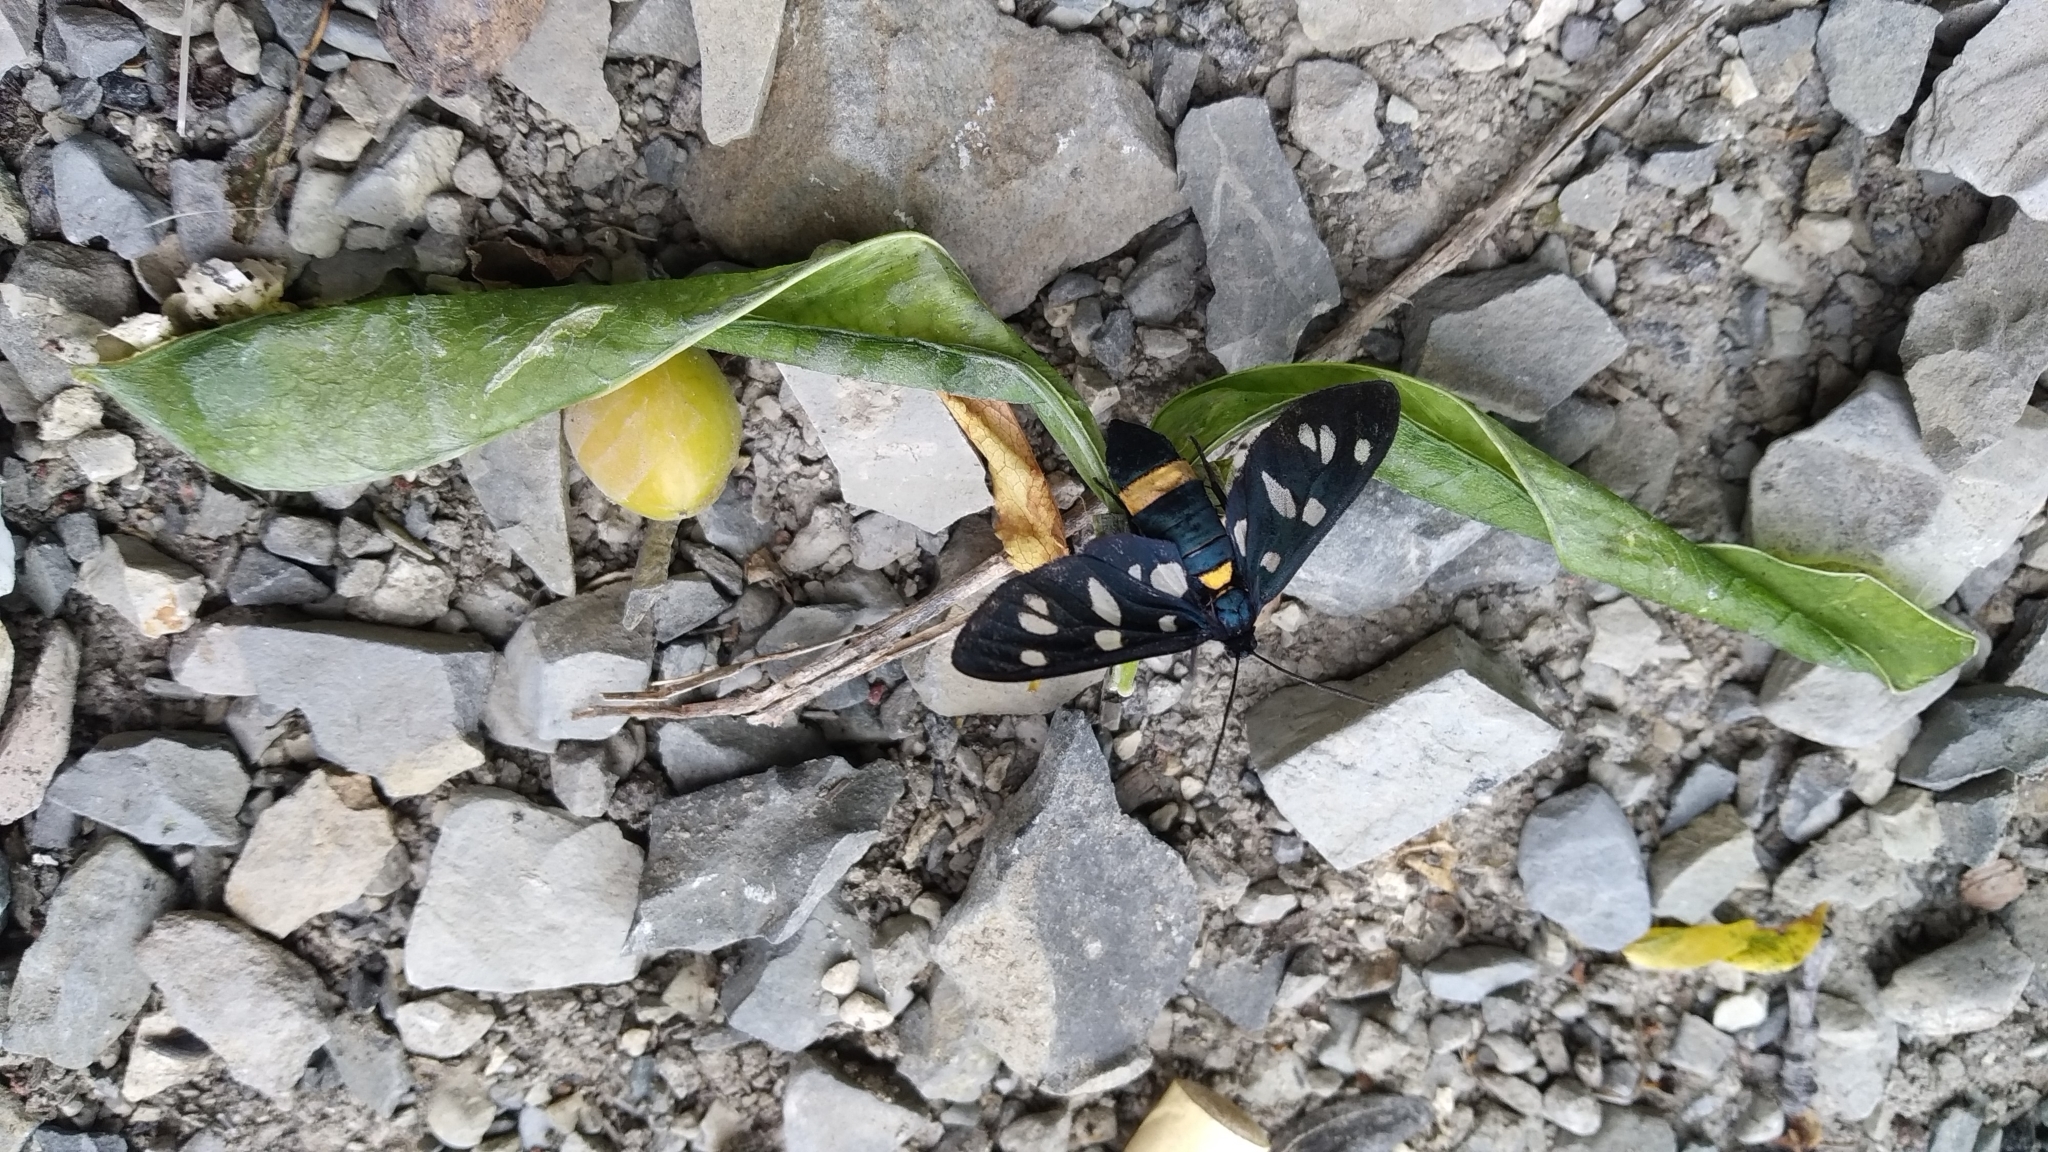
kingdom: Animalia
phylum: Arthropoda
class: Insecta
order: Lepidoptera
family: Erebidae
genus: Amata
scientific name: Amata nigricornis
